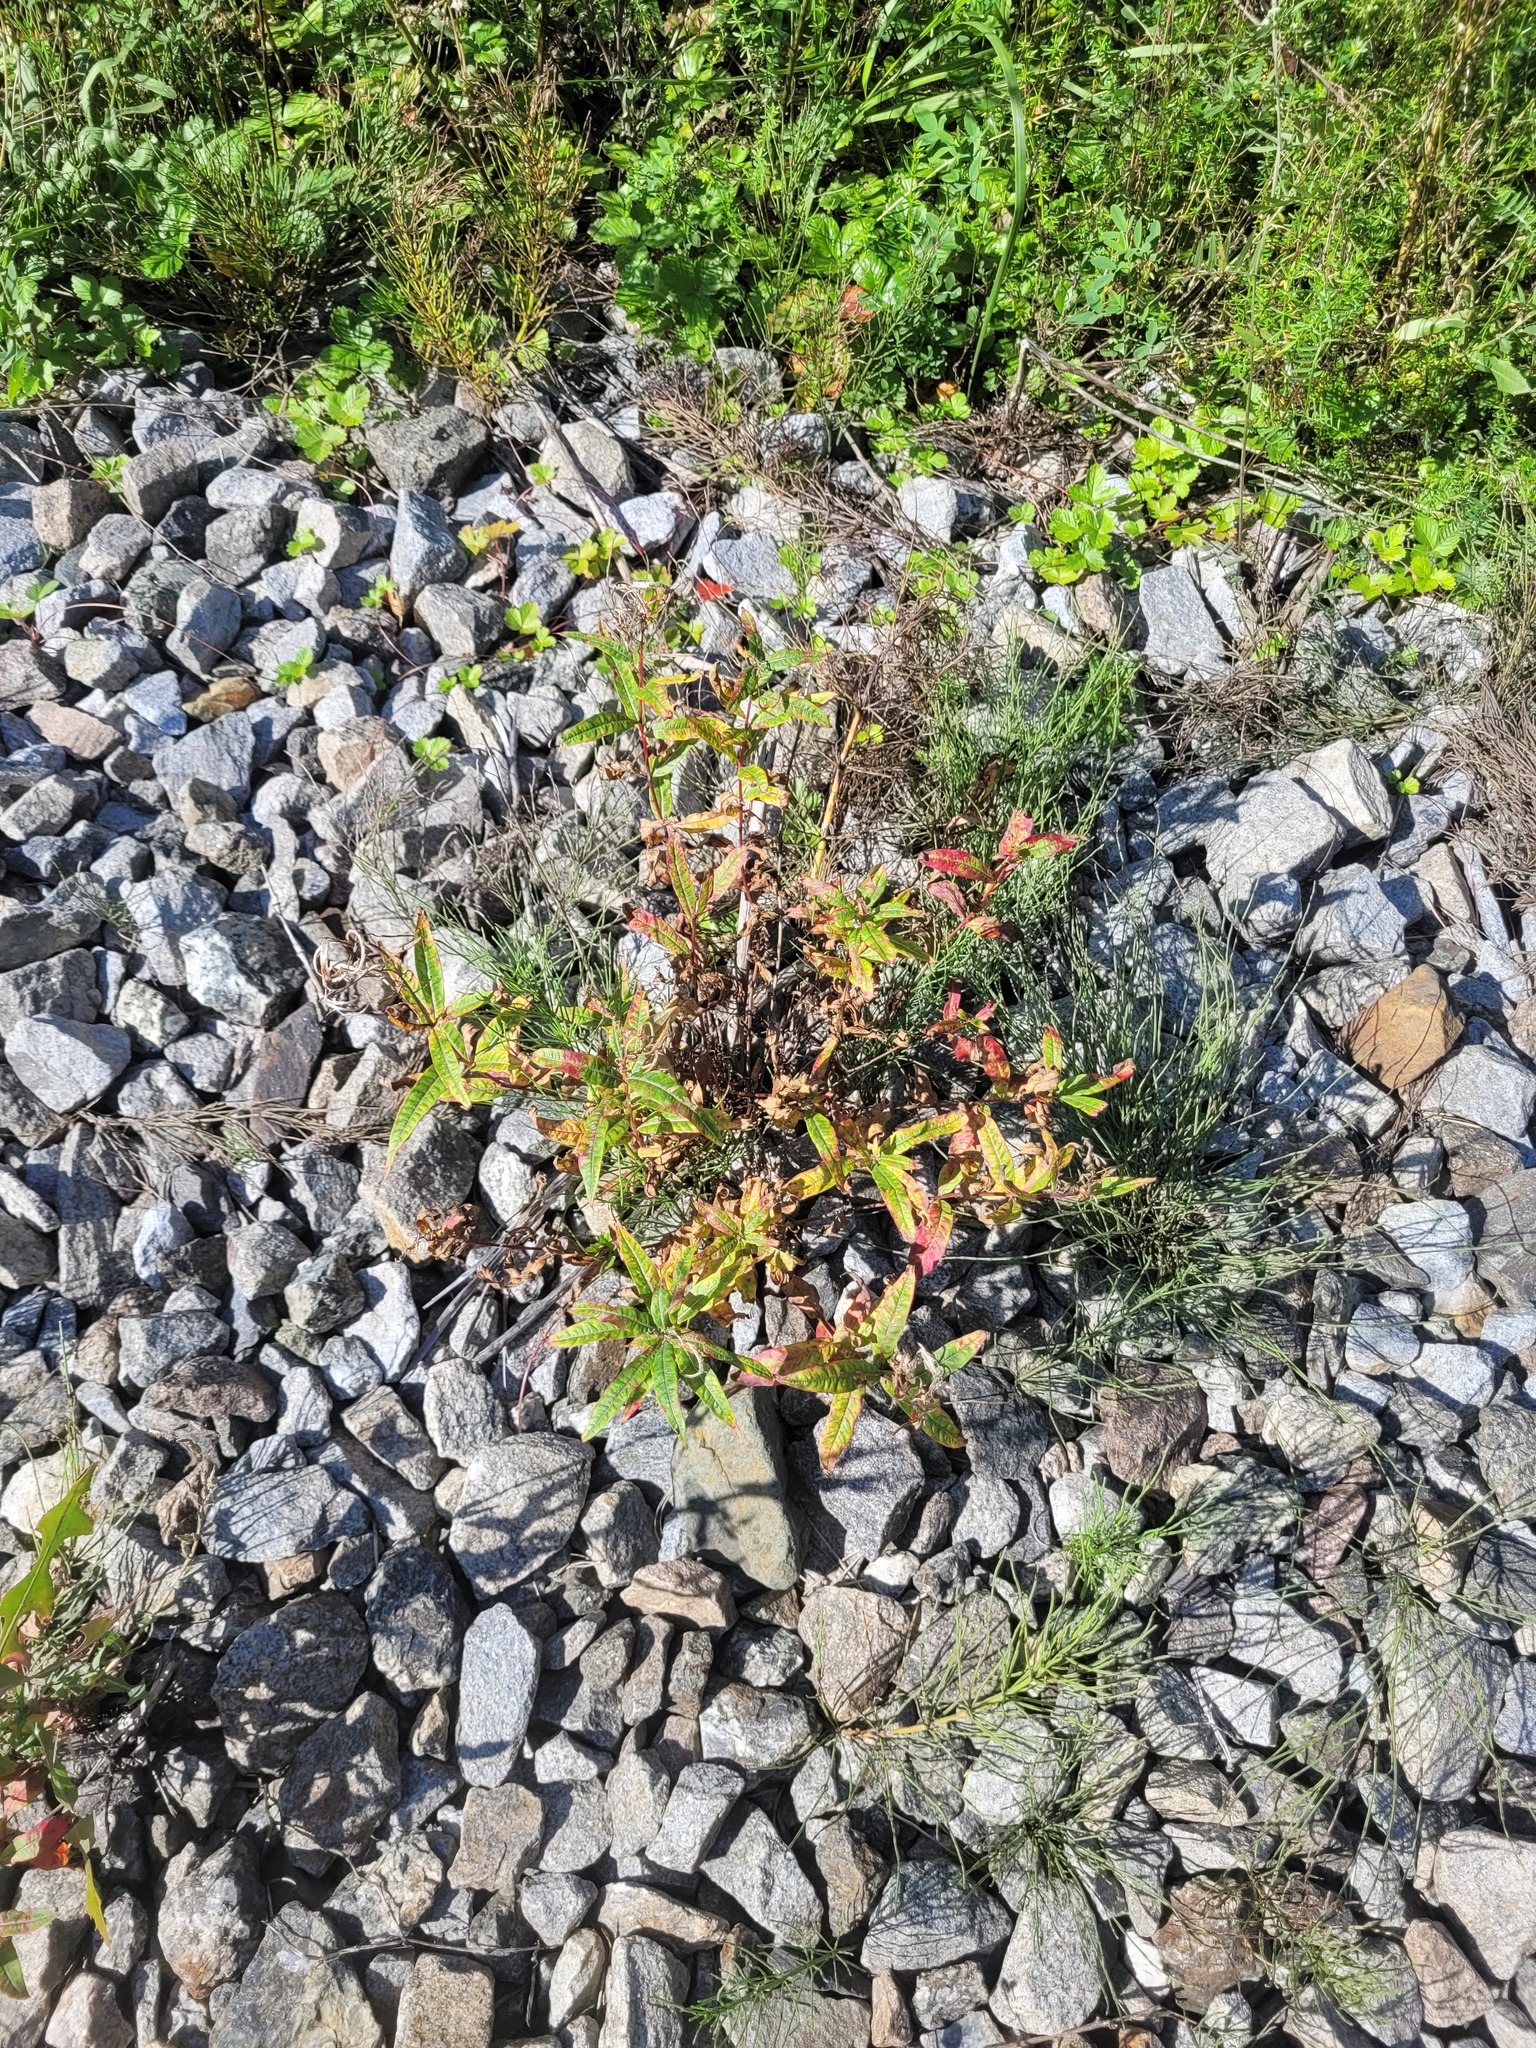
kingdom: Plantae
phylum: Tracheophyta
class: Magnoliopsida
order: Myrtales
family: Onagraceae
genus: Chamaenerion
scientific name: Chamaenerion angustifolium
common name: Fireweed
